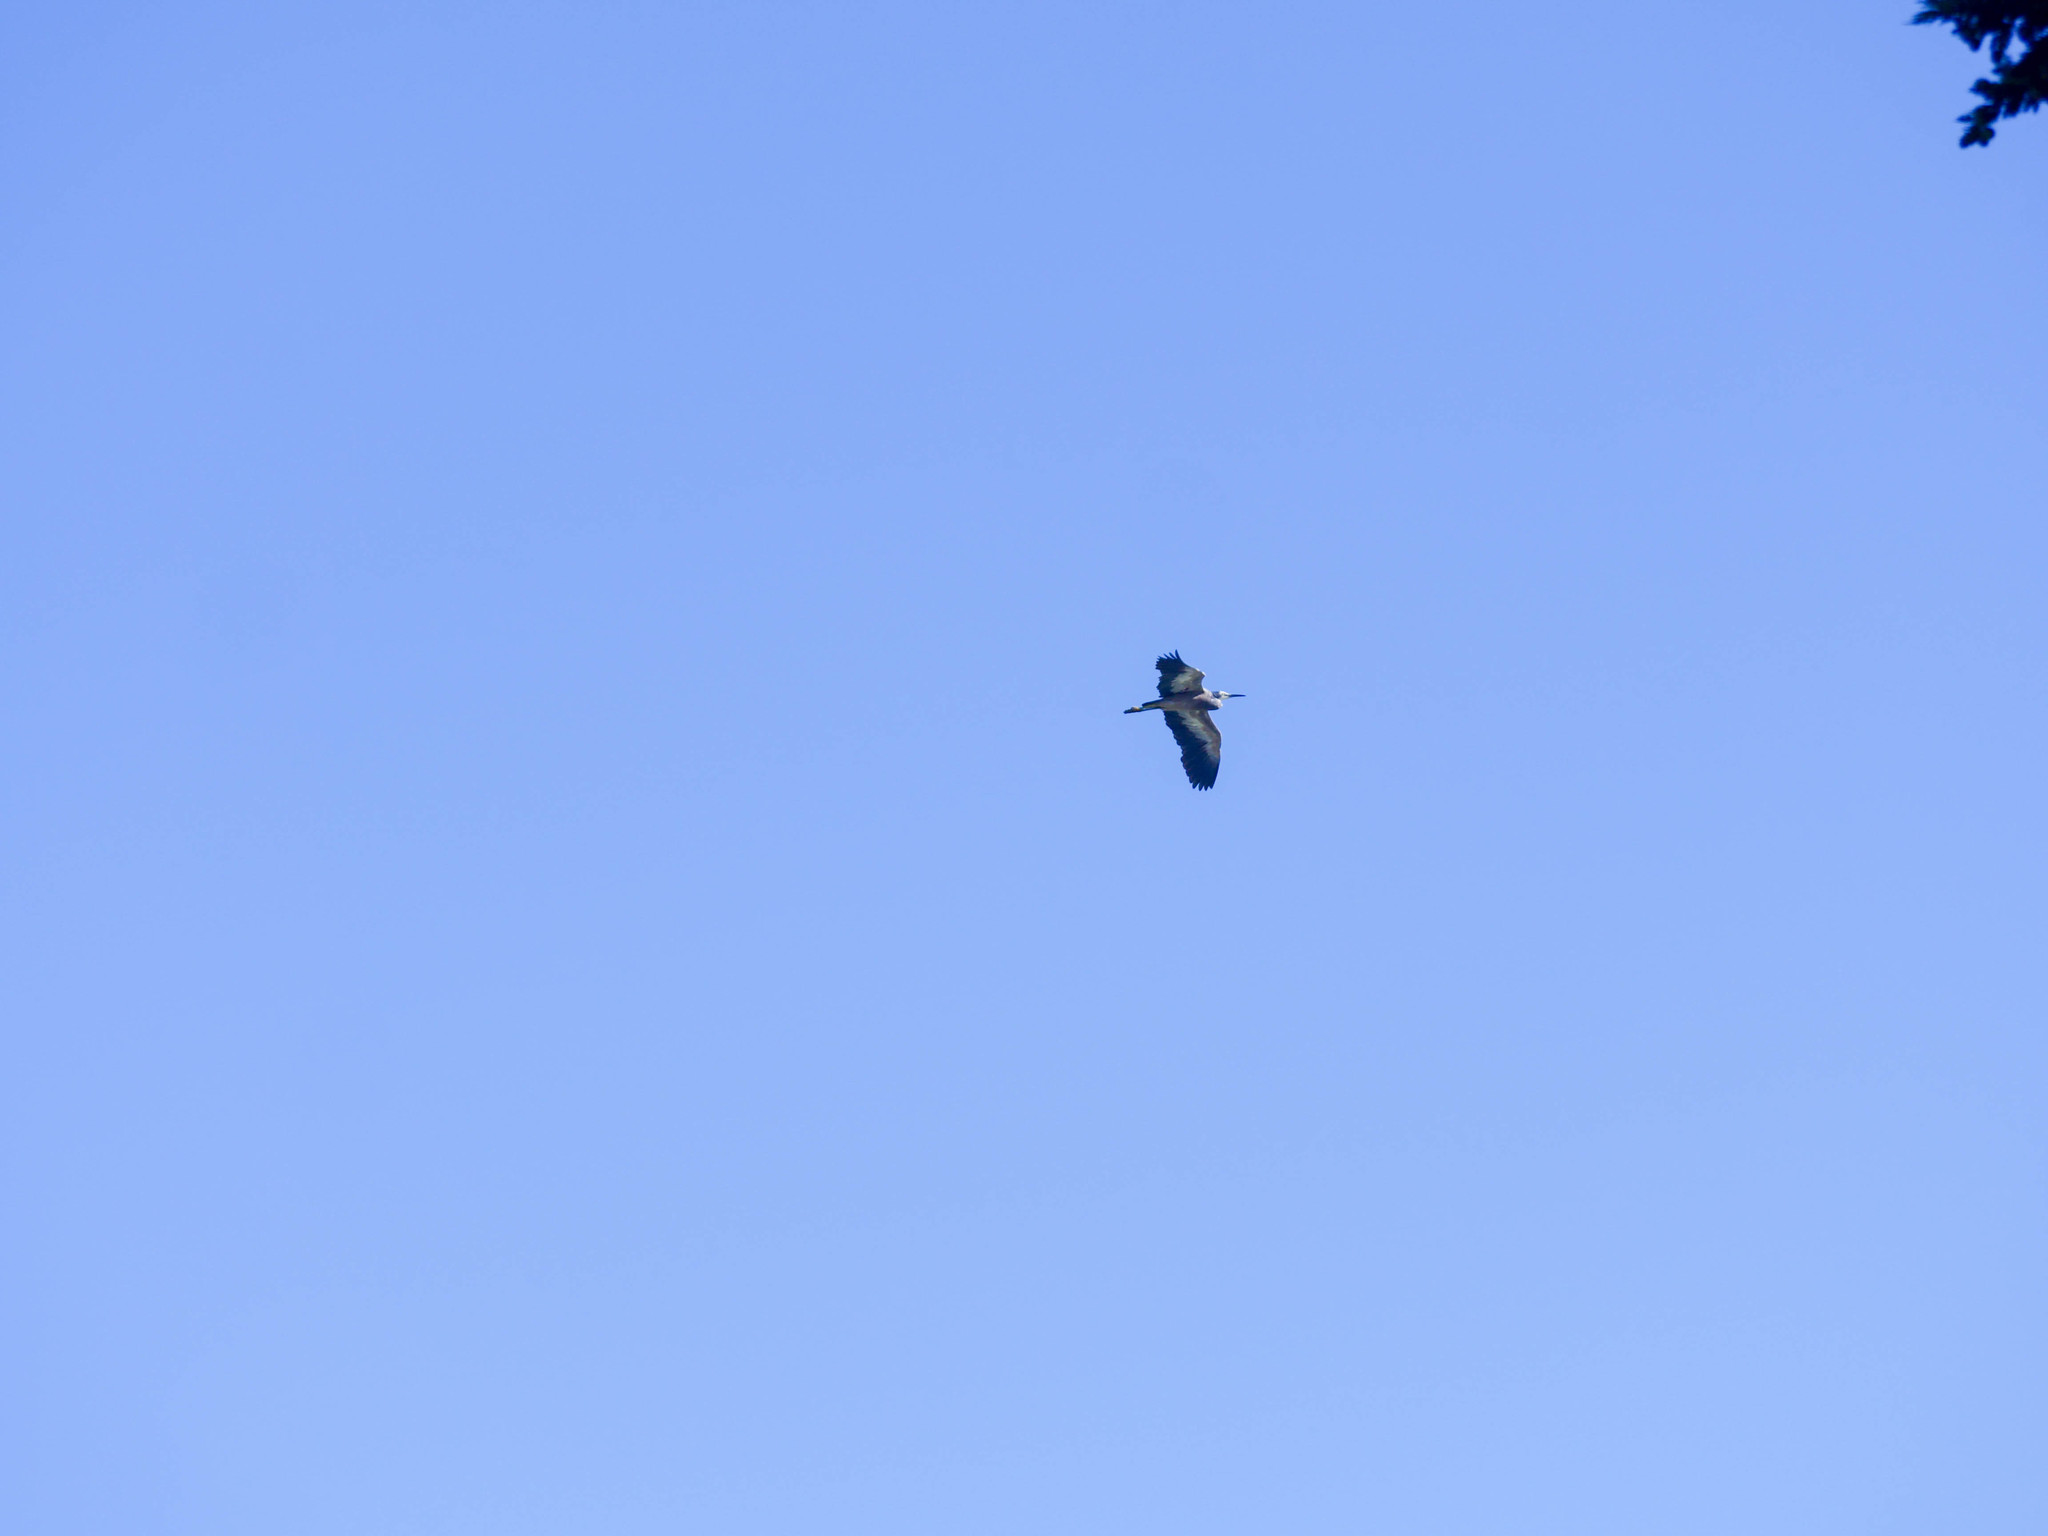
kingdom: Animalia
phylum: Chordata
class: Aves
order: Pelecaniformes
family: Ardeidae
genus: Egretta
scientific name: Egretta novaehollandiae
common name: White-faced heron
